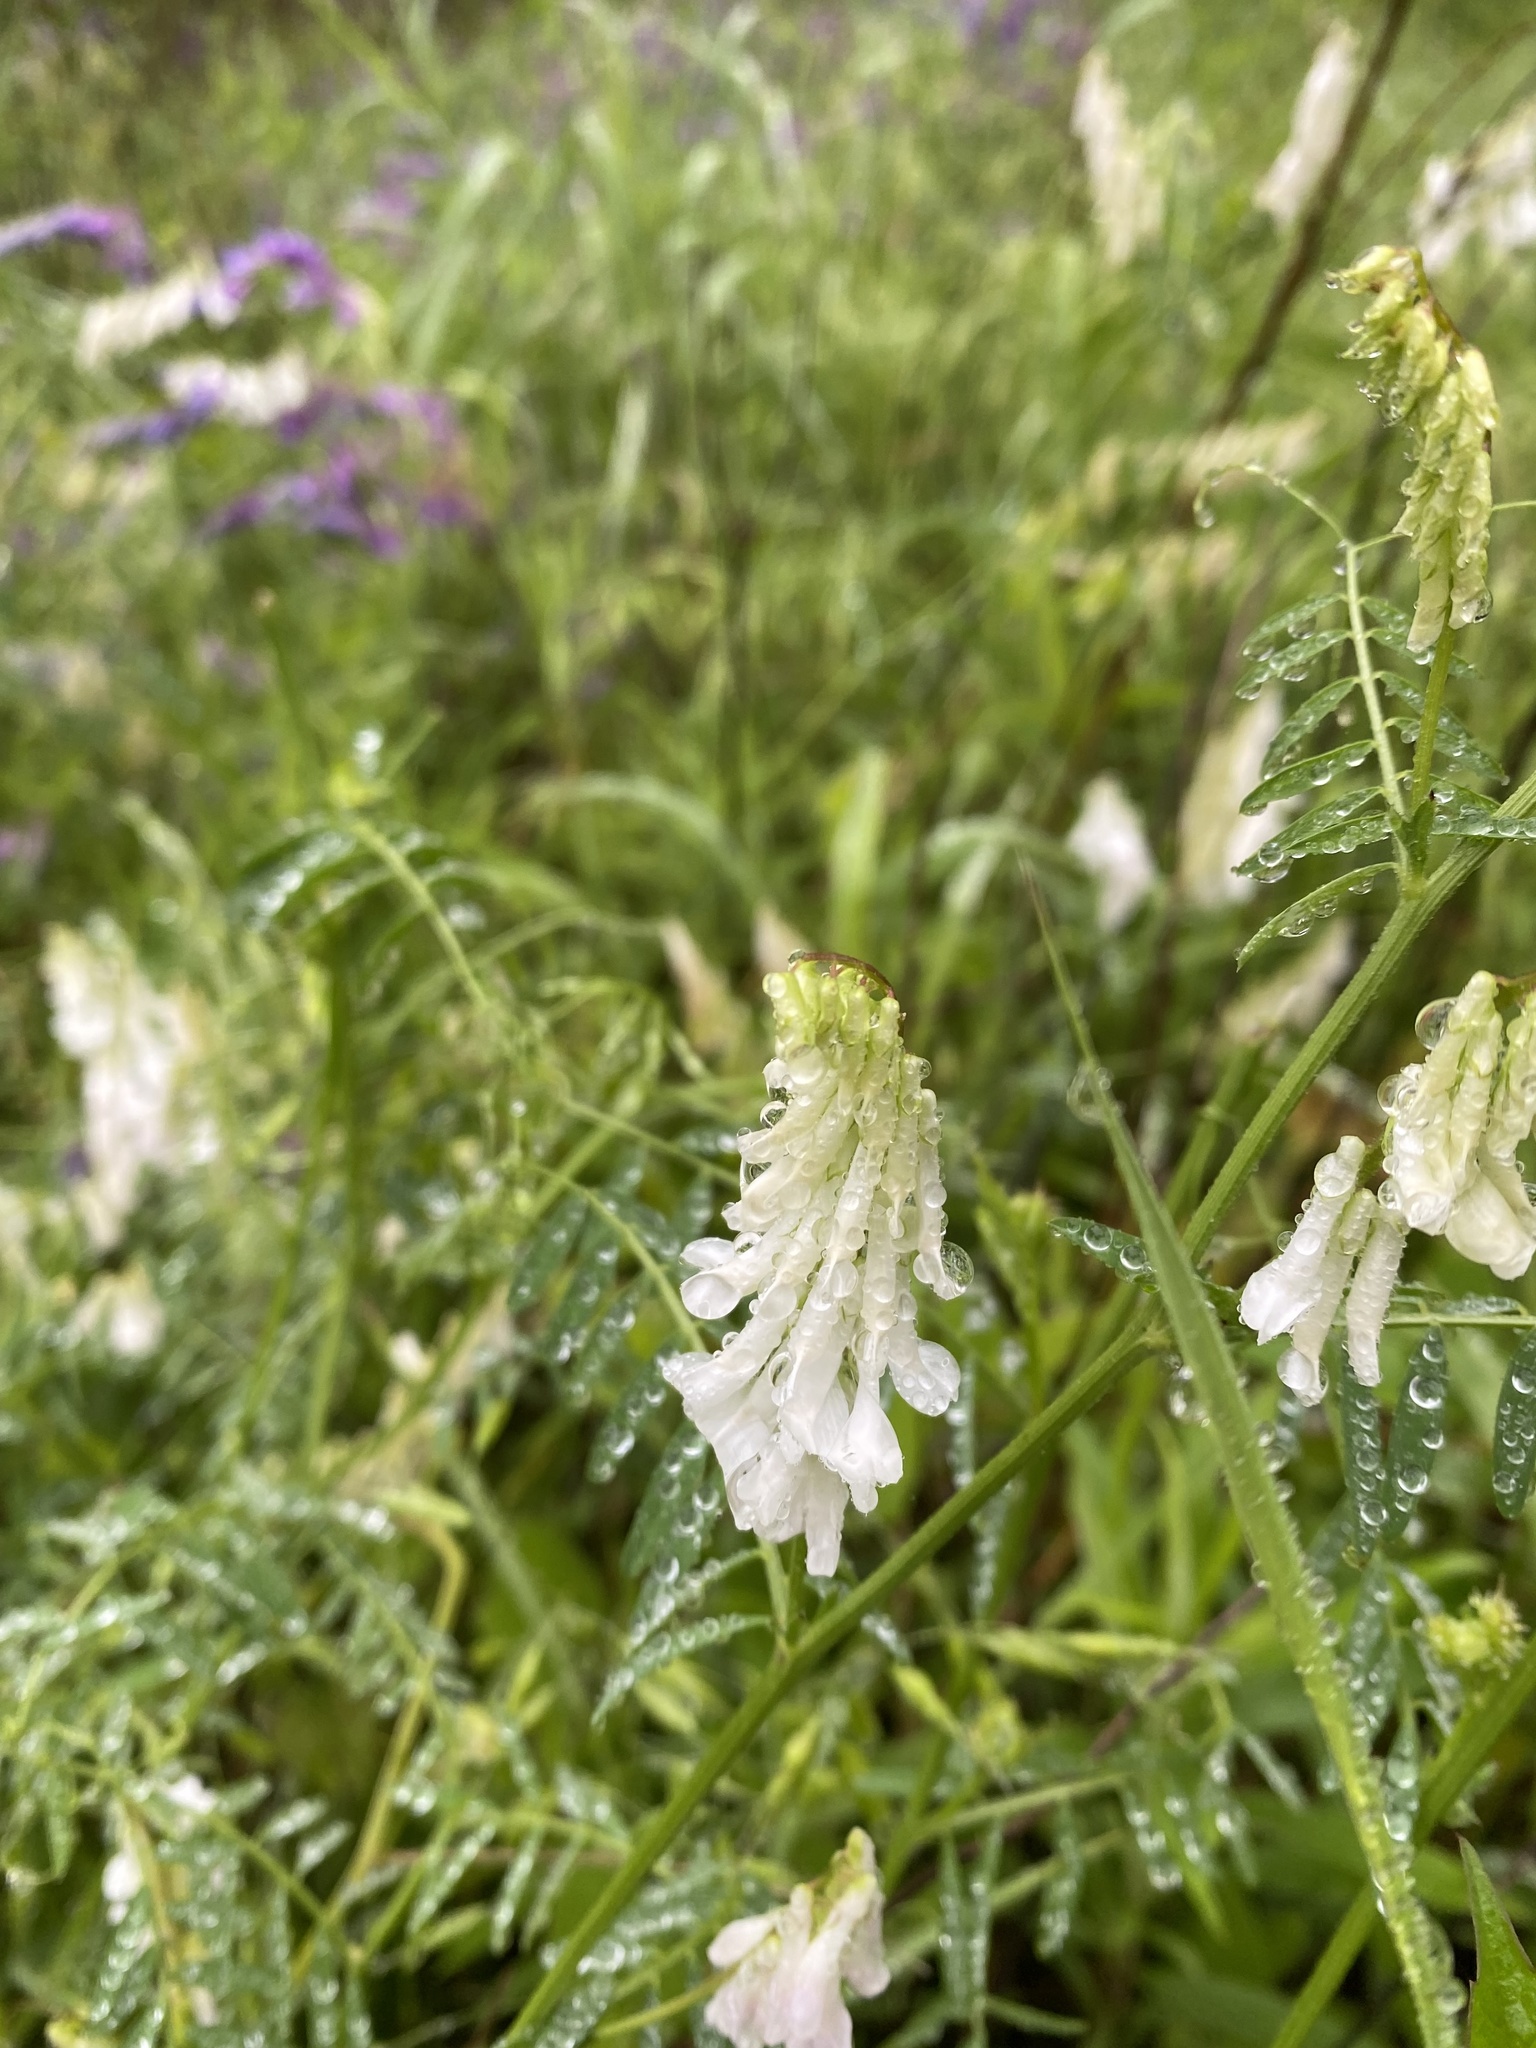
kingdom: Plantae
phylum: Tracheophyta
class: Magnoliopsida
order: Fabales
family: Fabaceae
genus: Vicia
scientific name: Vicia villosa
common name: Fodder vetch
